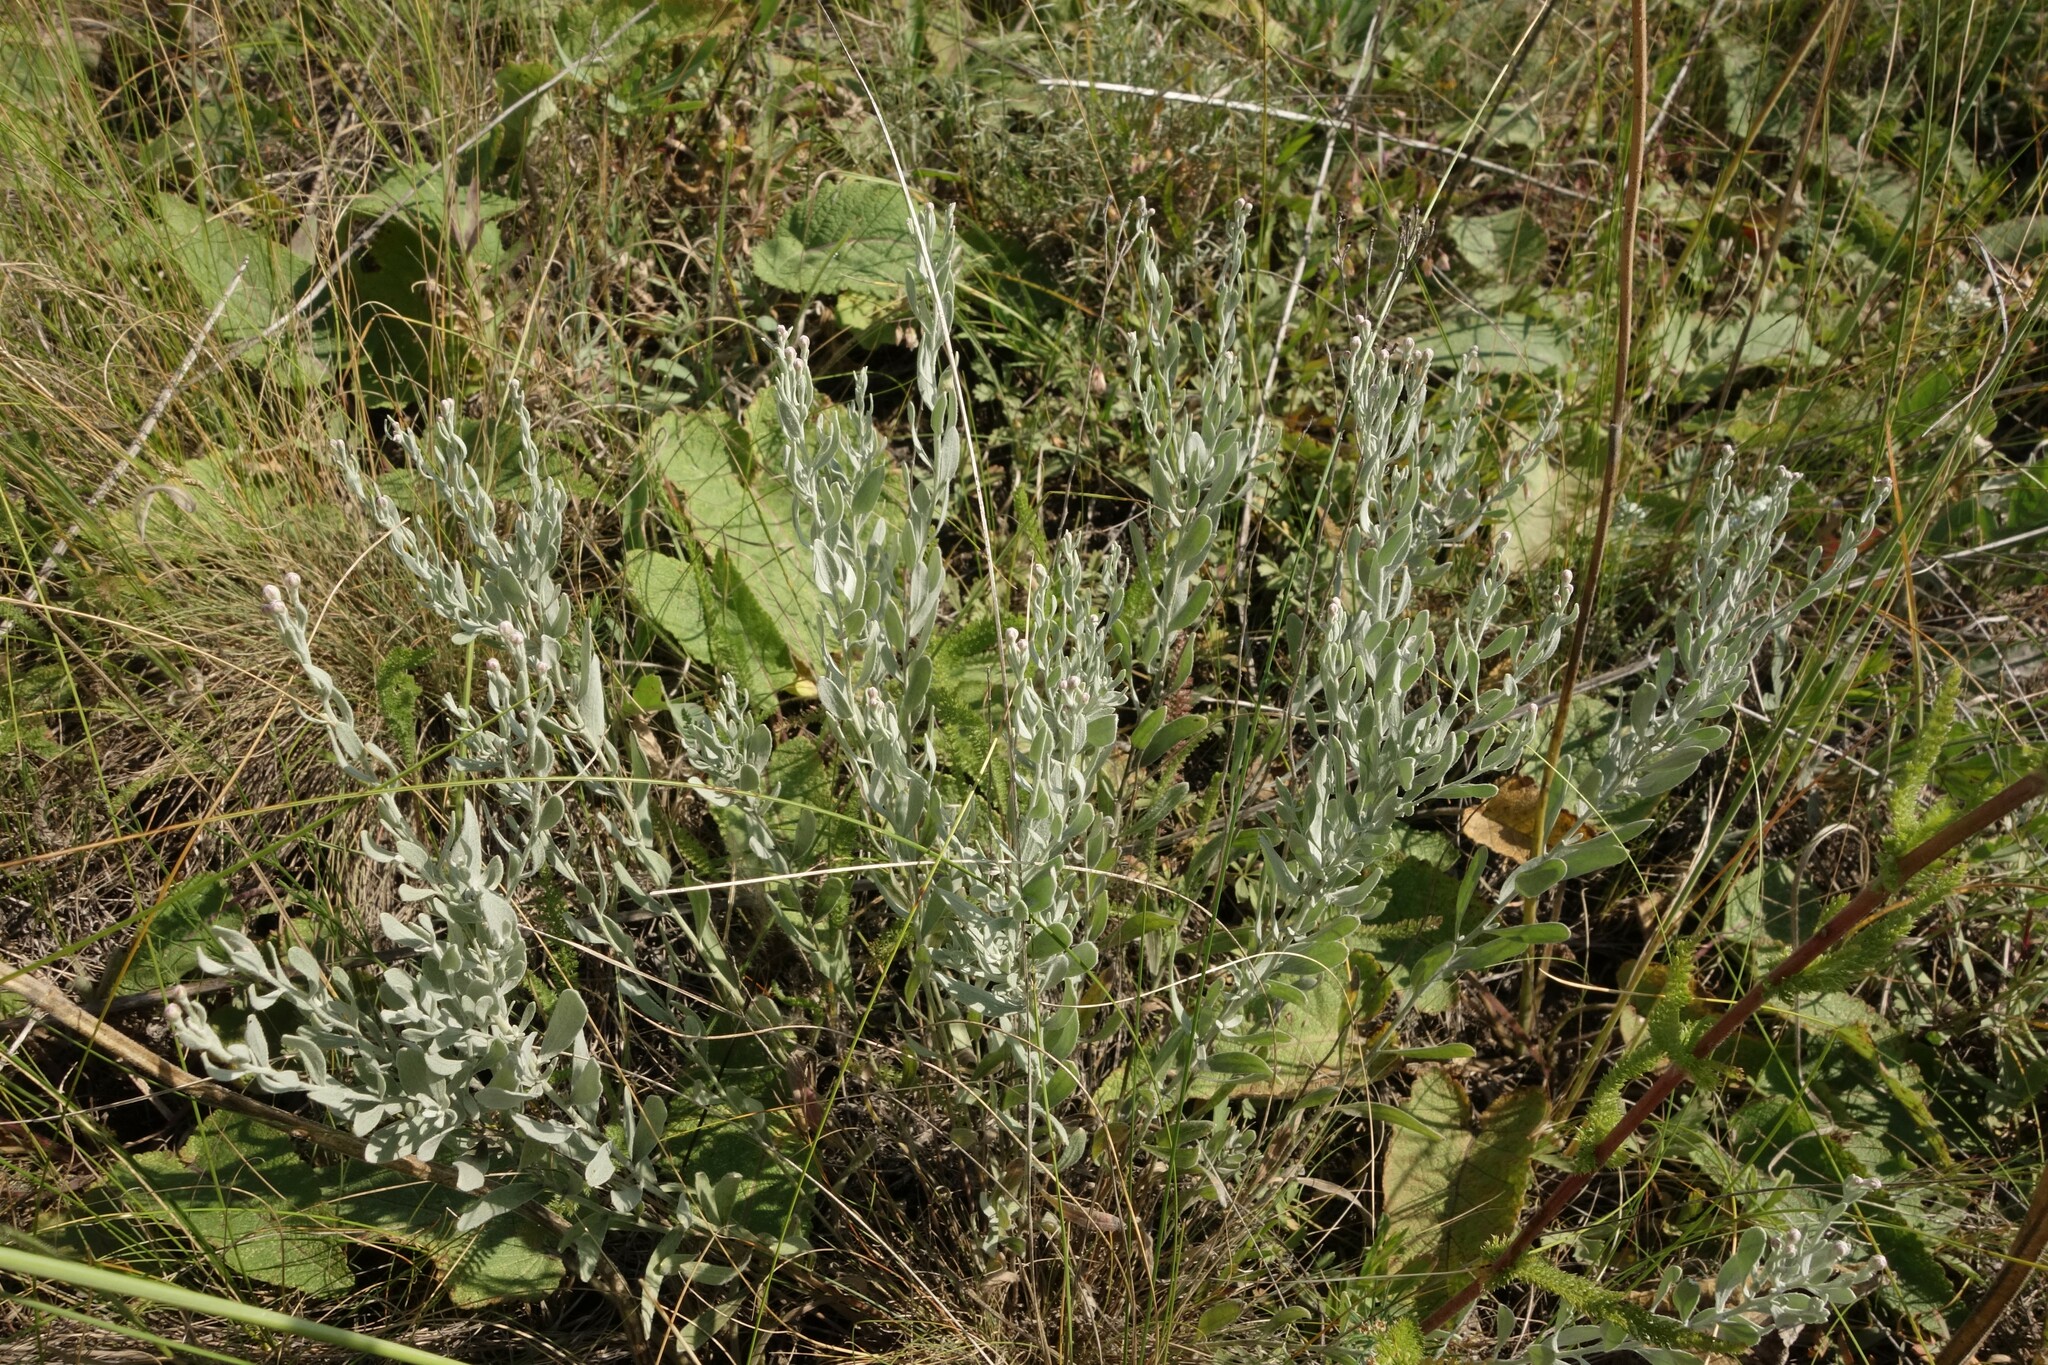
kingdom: Plantae
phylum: Tracheophyta
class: Magnoliopsida
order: Asterales
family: Asteraceae
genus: Galatella
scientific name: Galatella villosa
